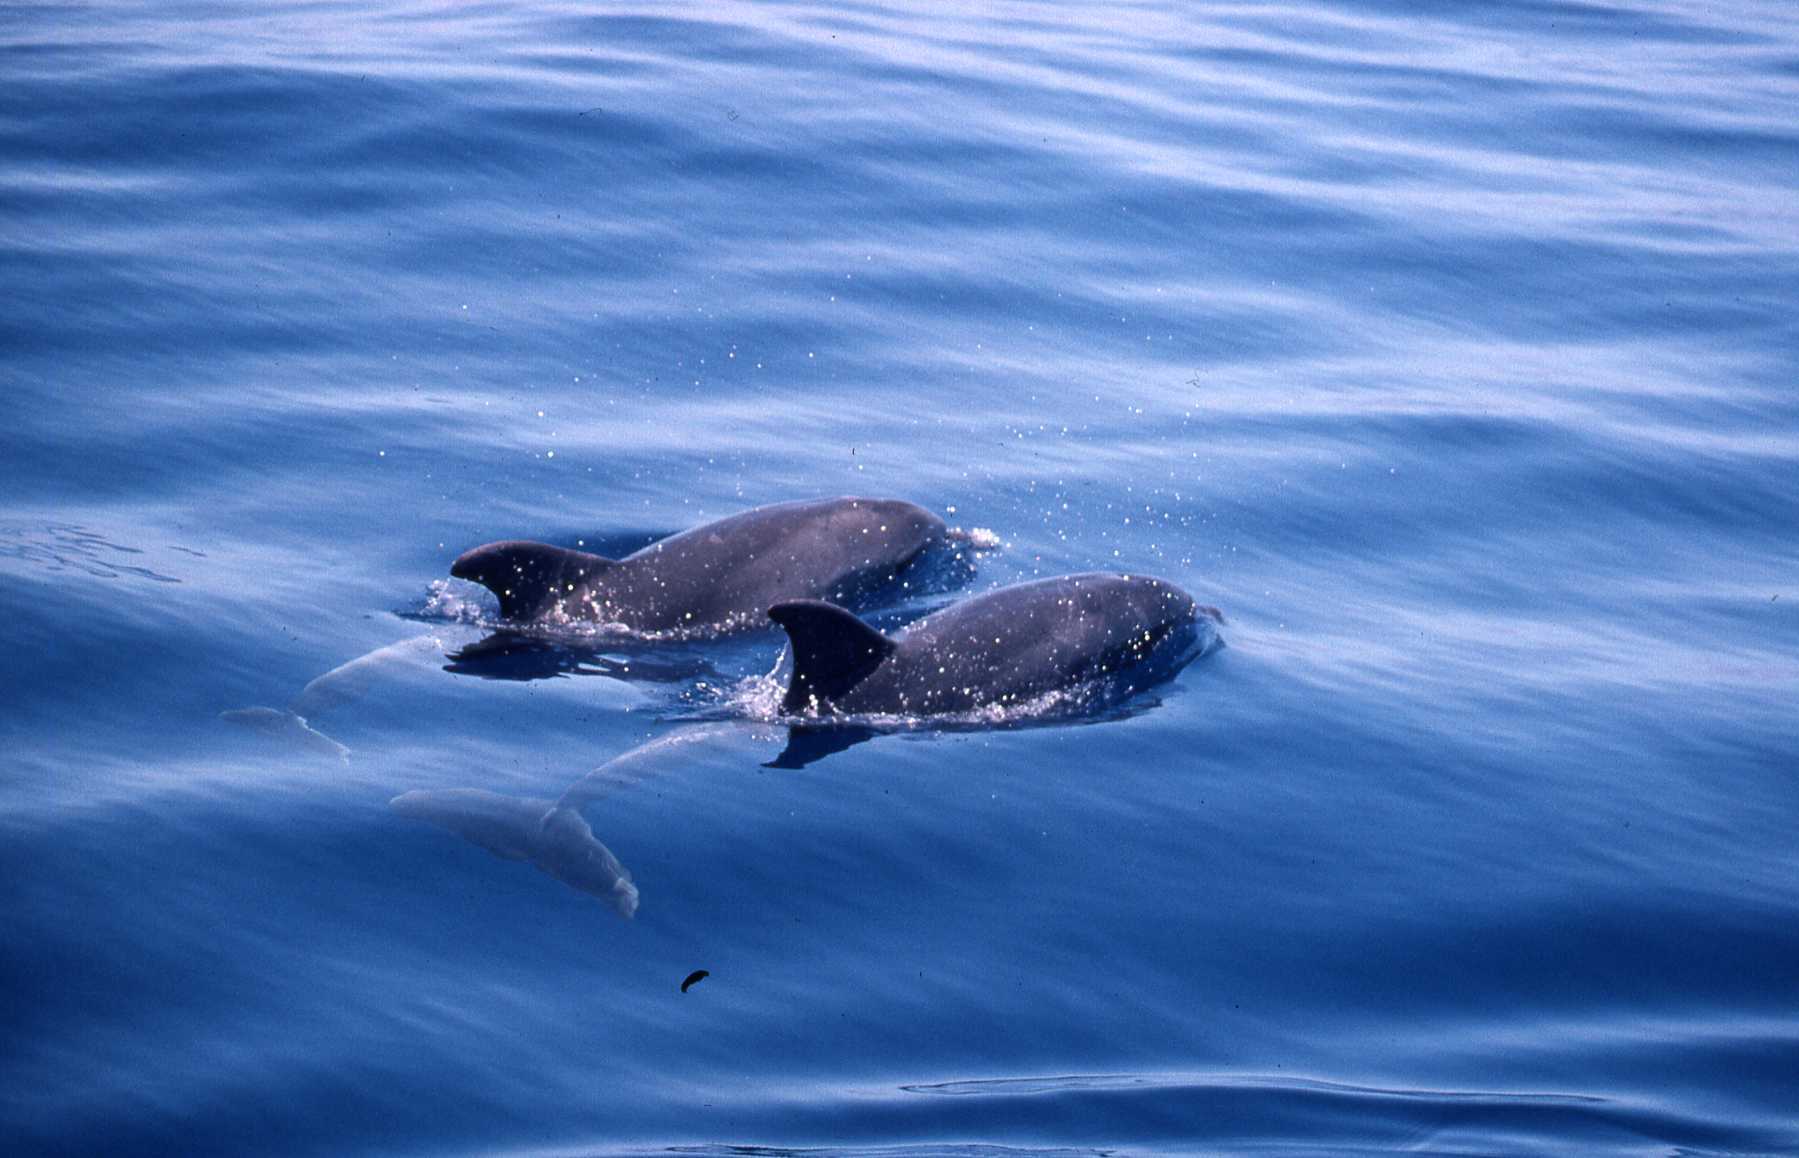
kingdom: Animalia
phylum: Chordata
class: Mammalia
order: Cetacea
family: Delphinidae
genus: Tursiops
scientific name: Tursiops truncatus
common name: Bottlenose dolphin
